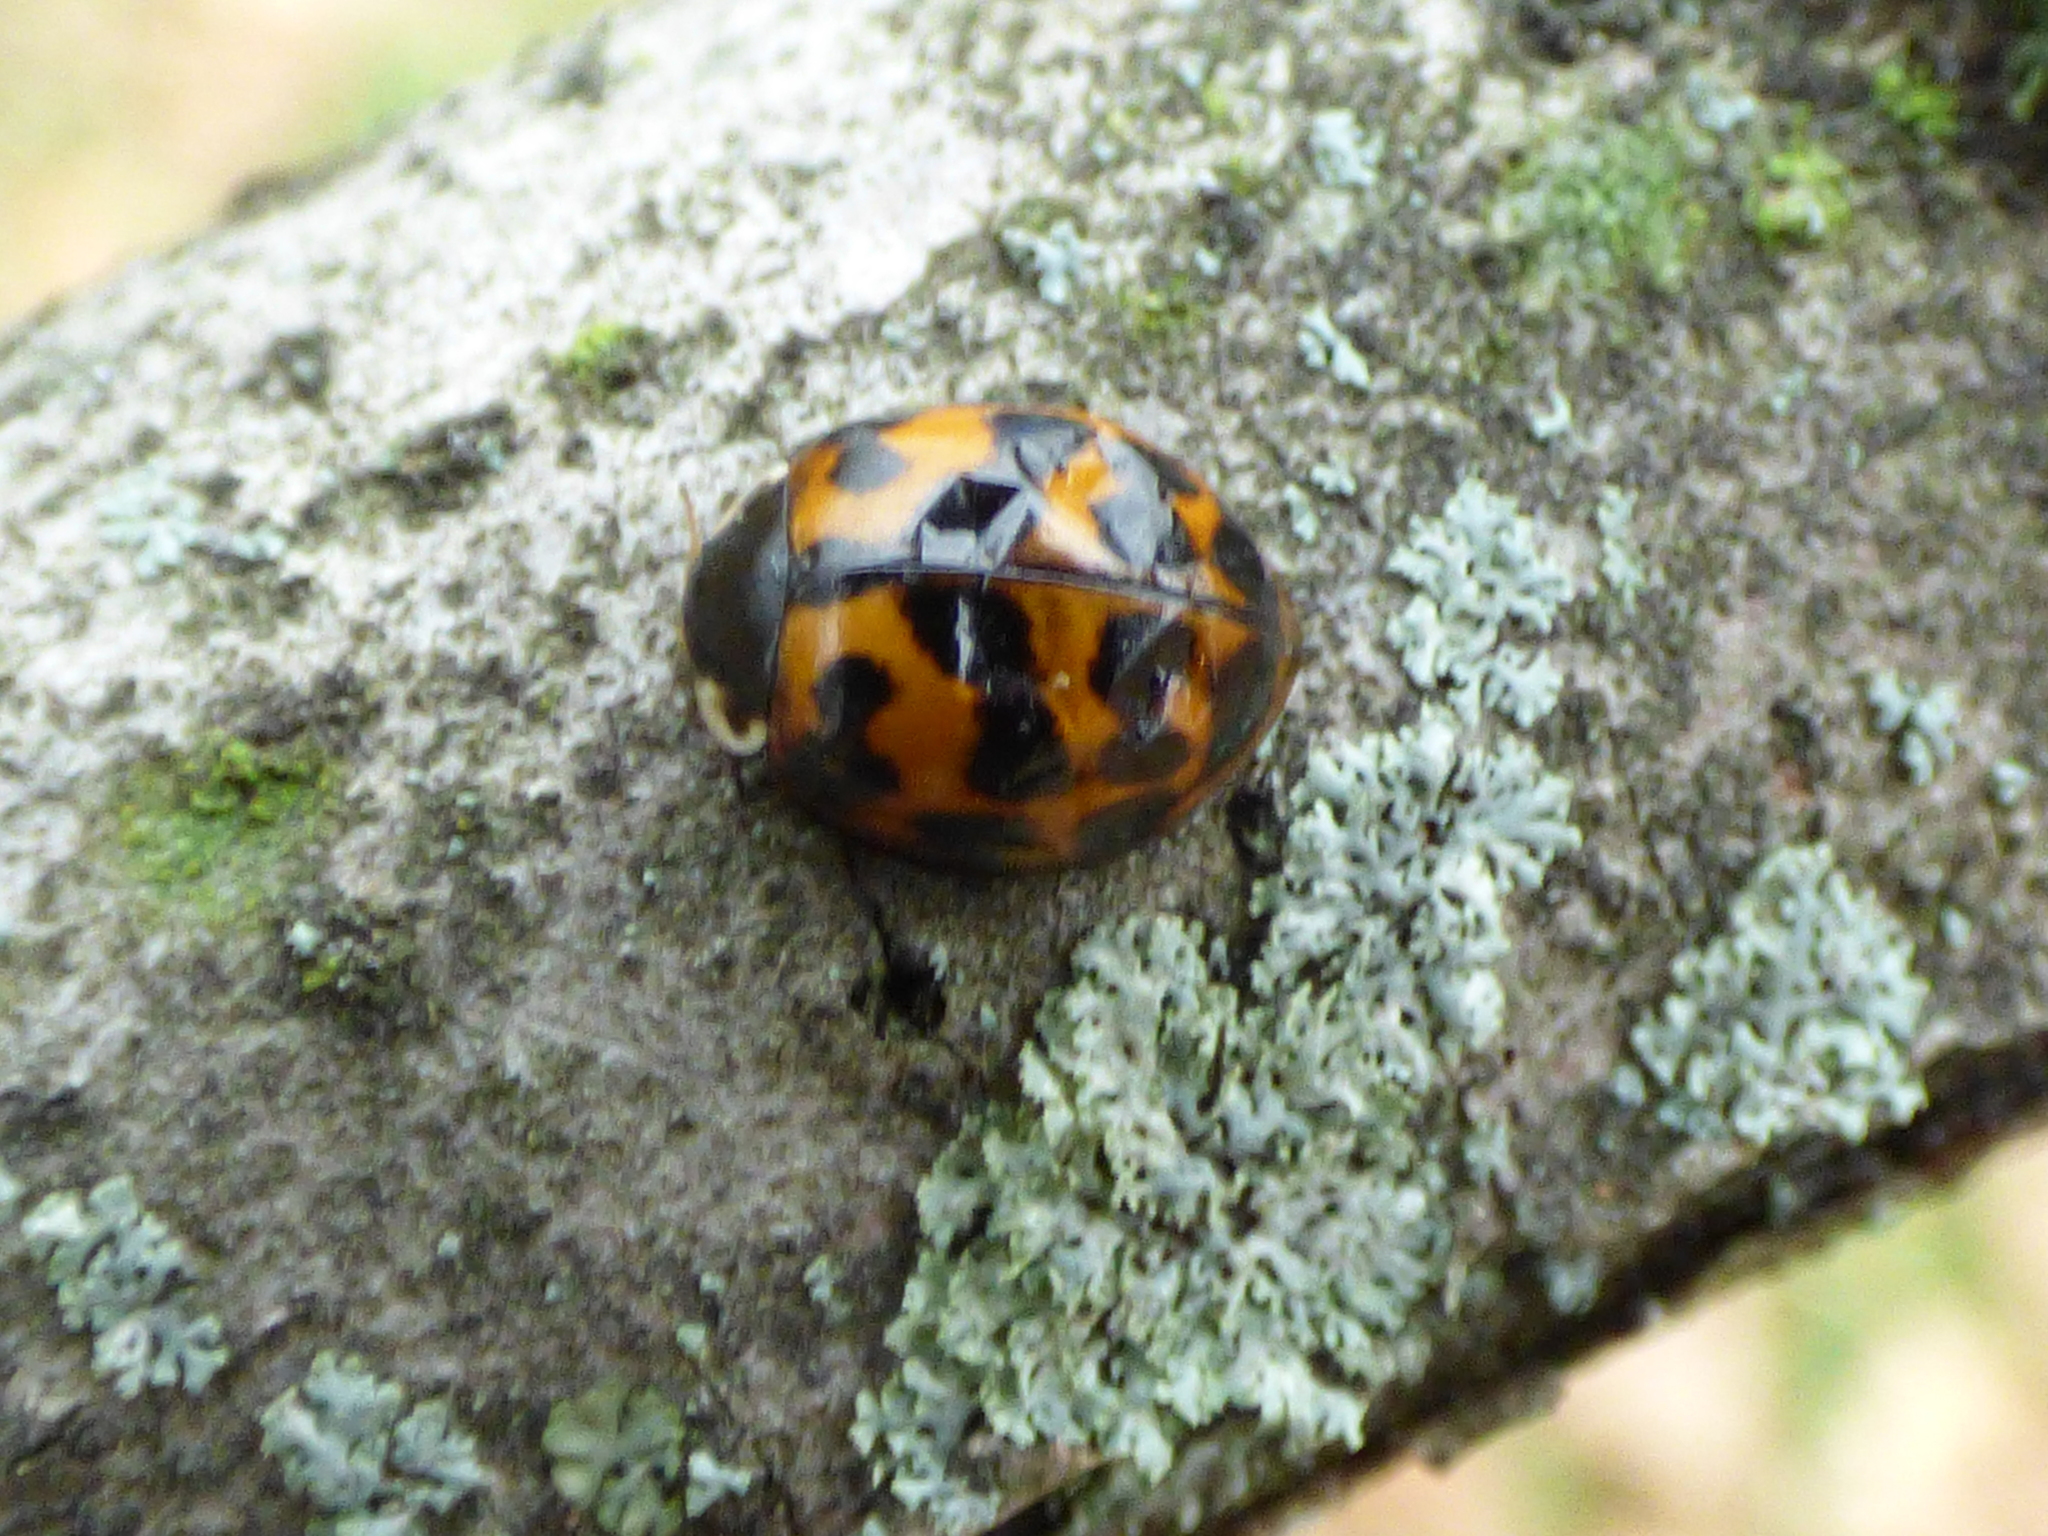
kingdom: Animalia
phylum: Arthropoda
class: Insecta
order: Coleoptera
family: Coccinellidae
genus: Harmonia
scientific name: Harmonia axyridis
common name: Harlequin ladybird
